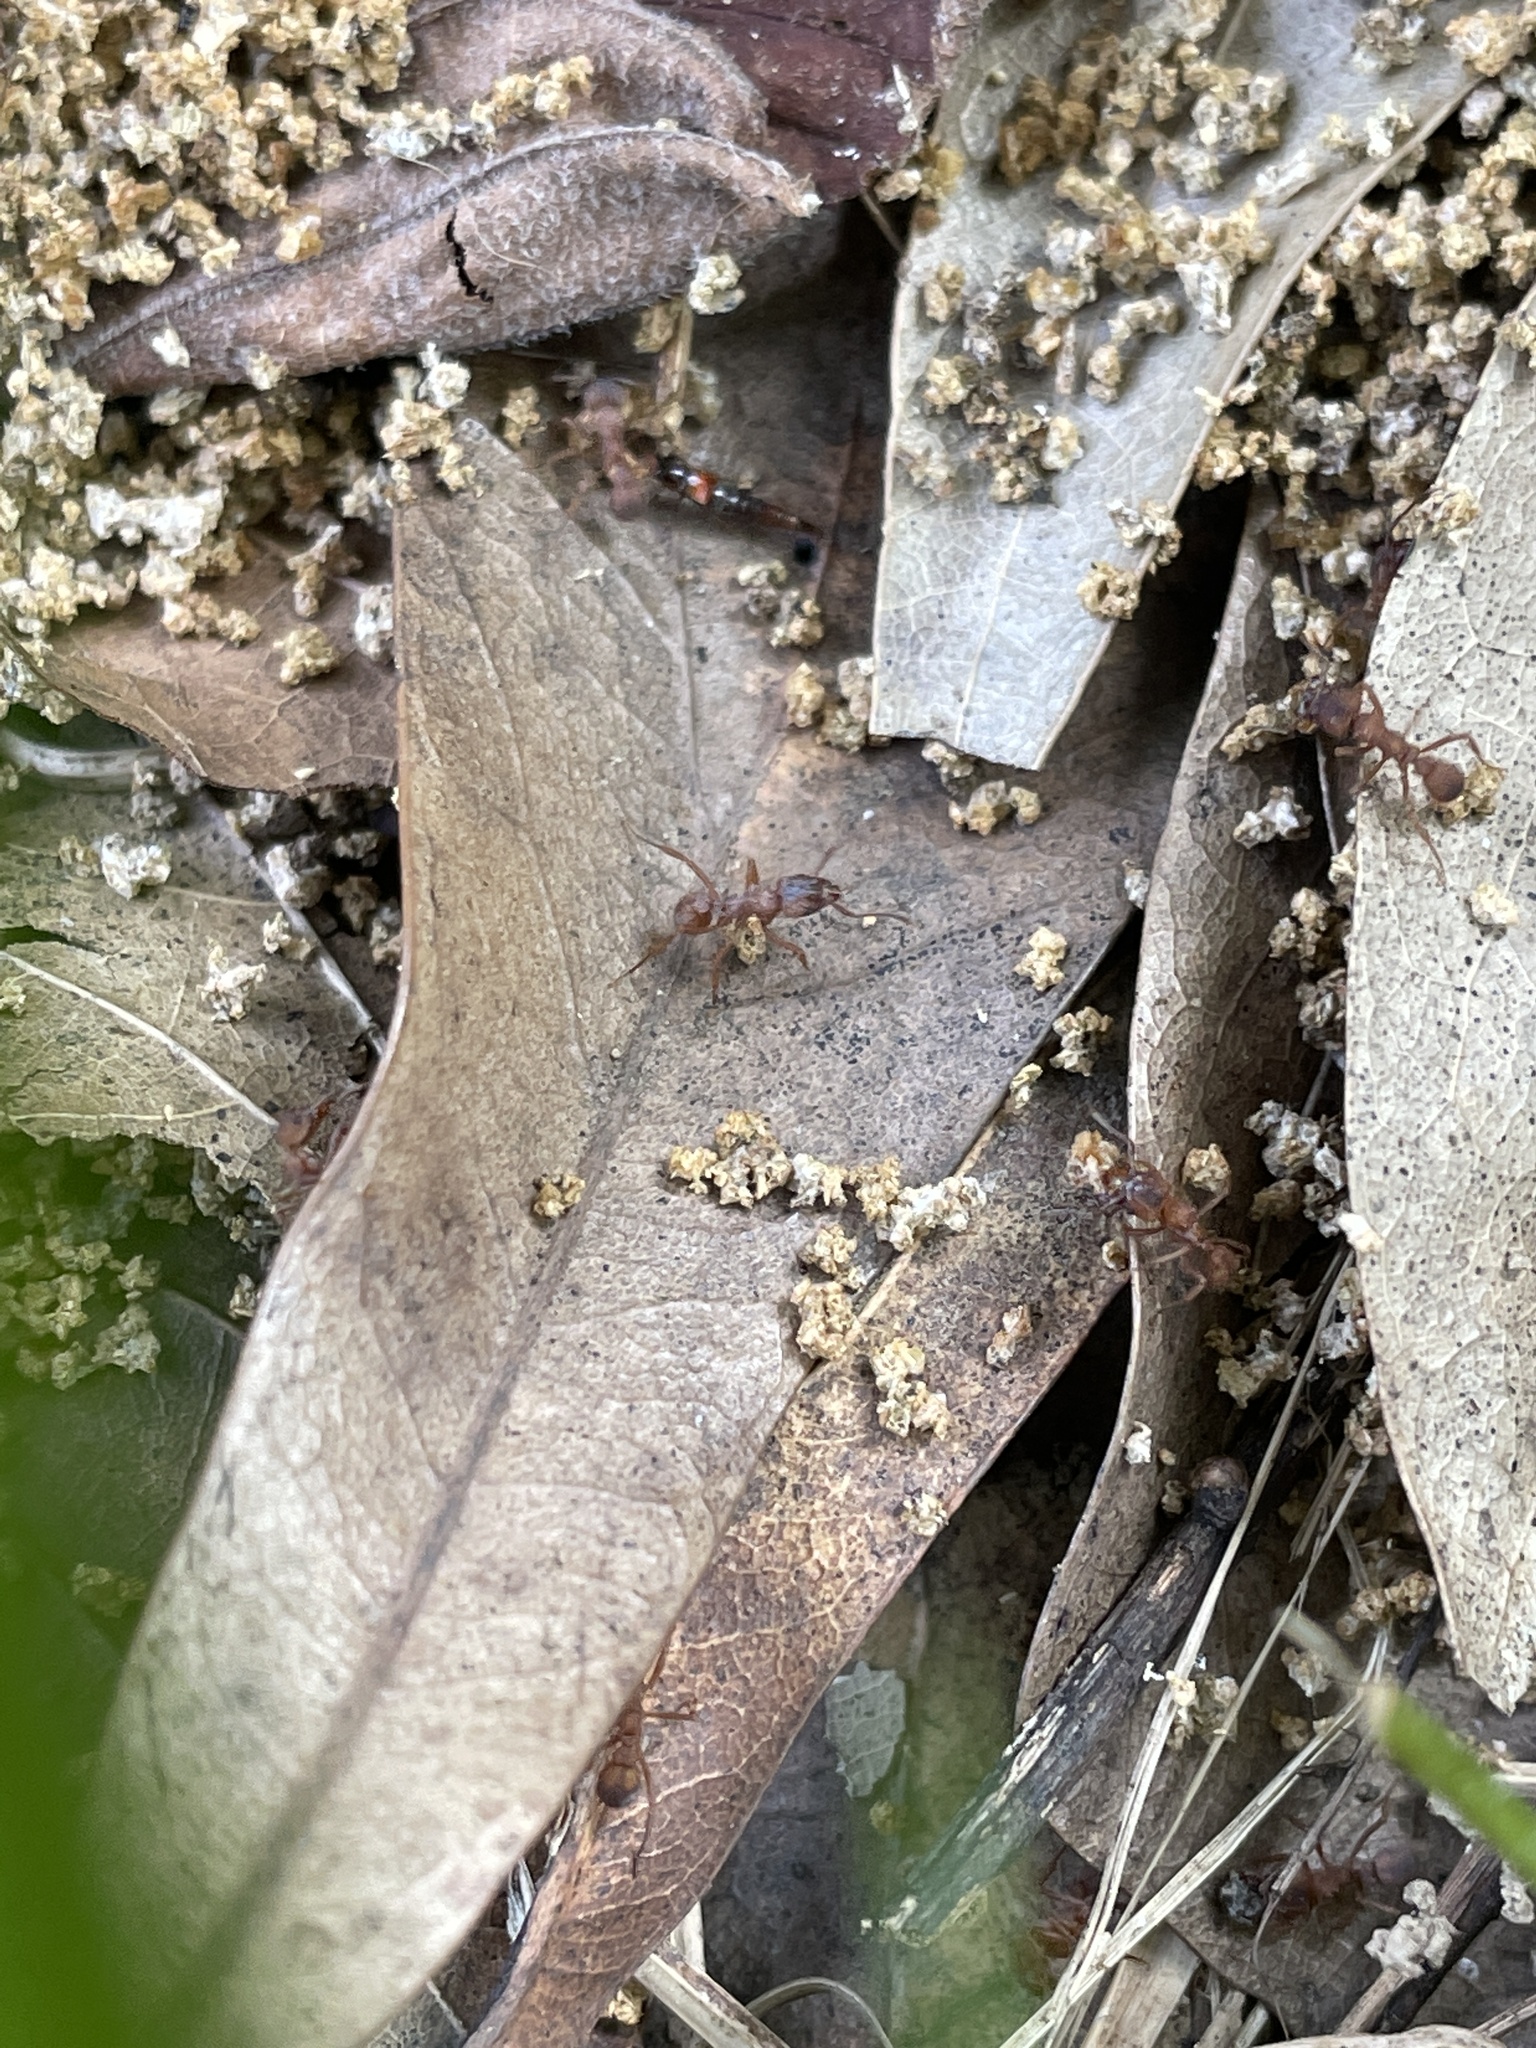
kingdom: Animalia
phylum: Arthropoda
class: Insecta
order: Hymenoptera
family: Formicidae
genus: Trachymyrmex
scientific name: Trachymyrmex septentrionalis
